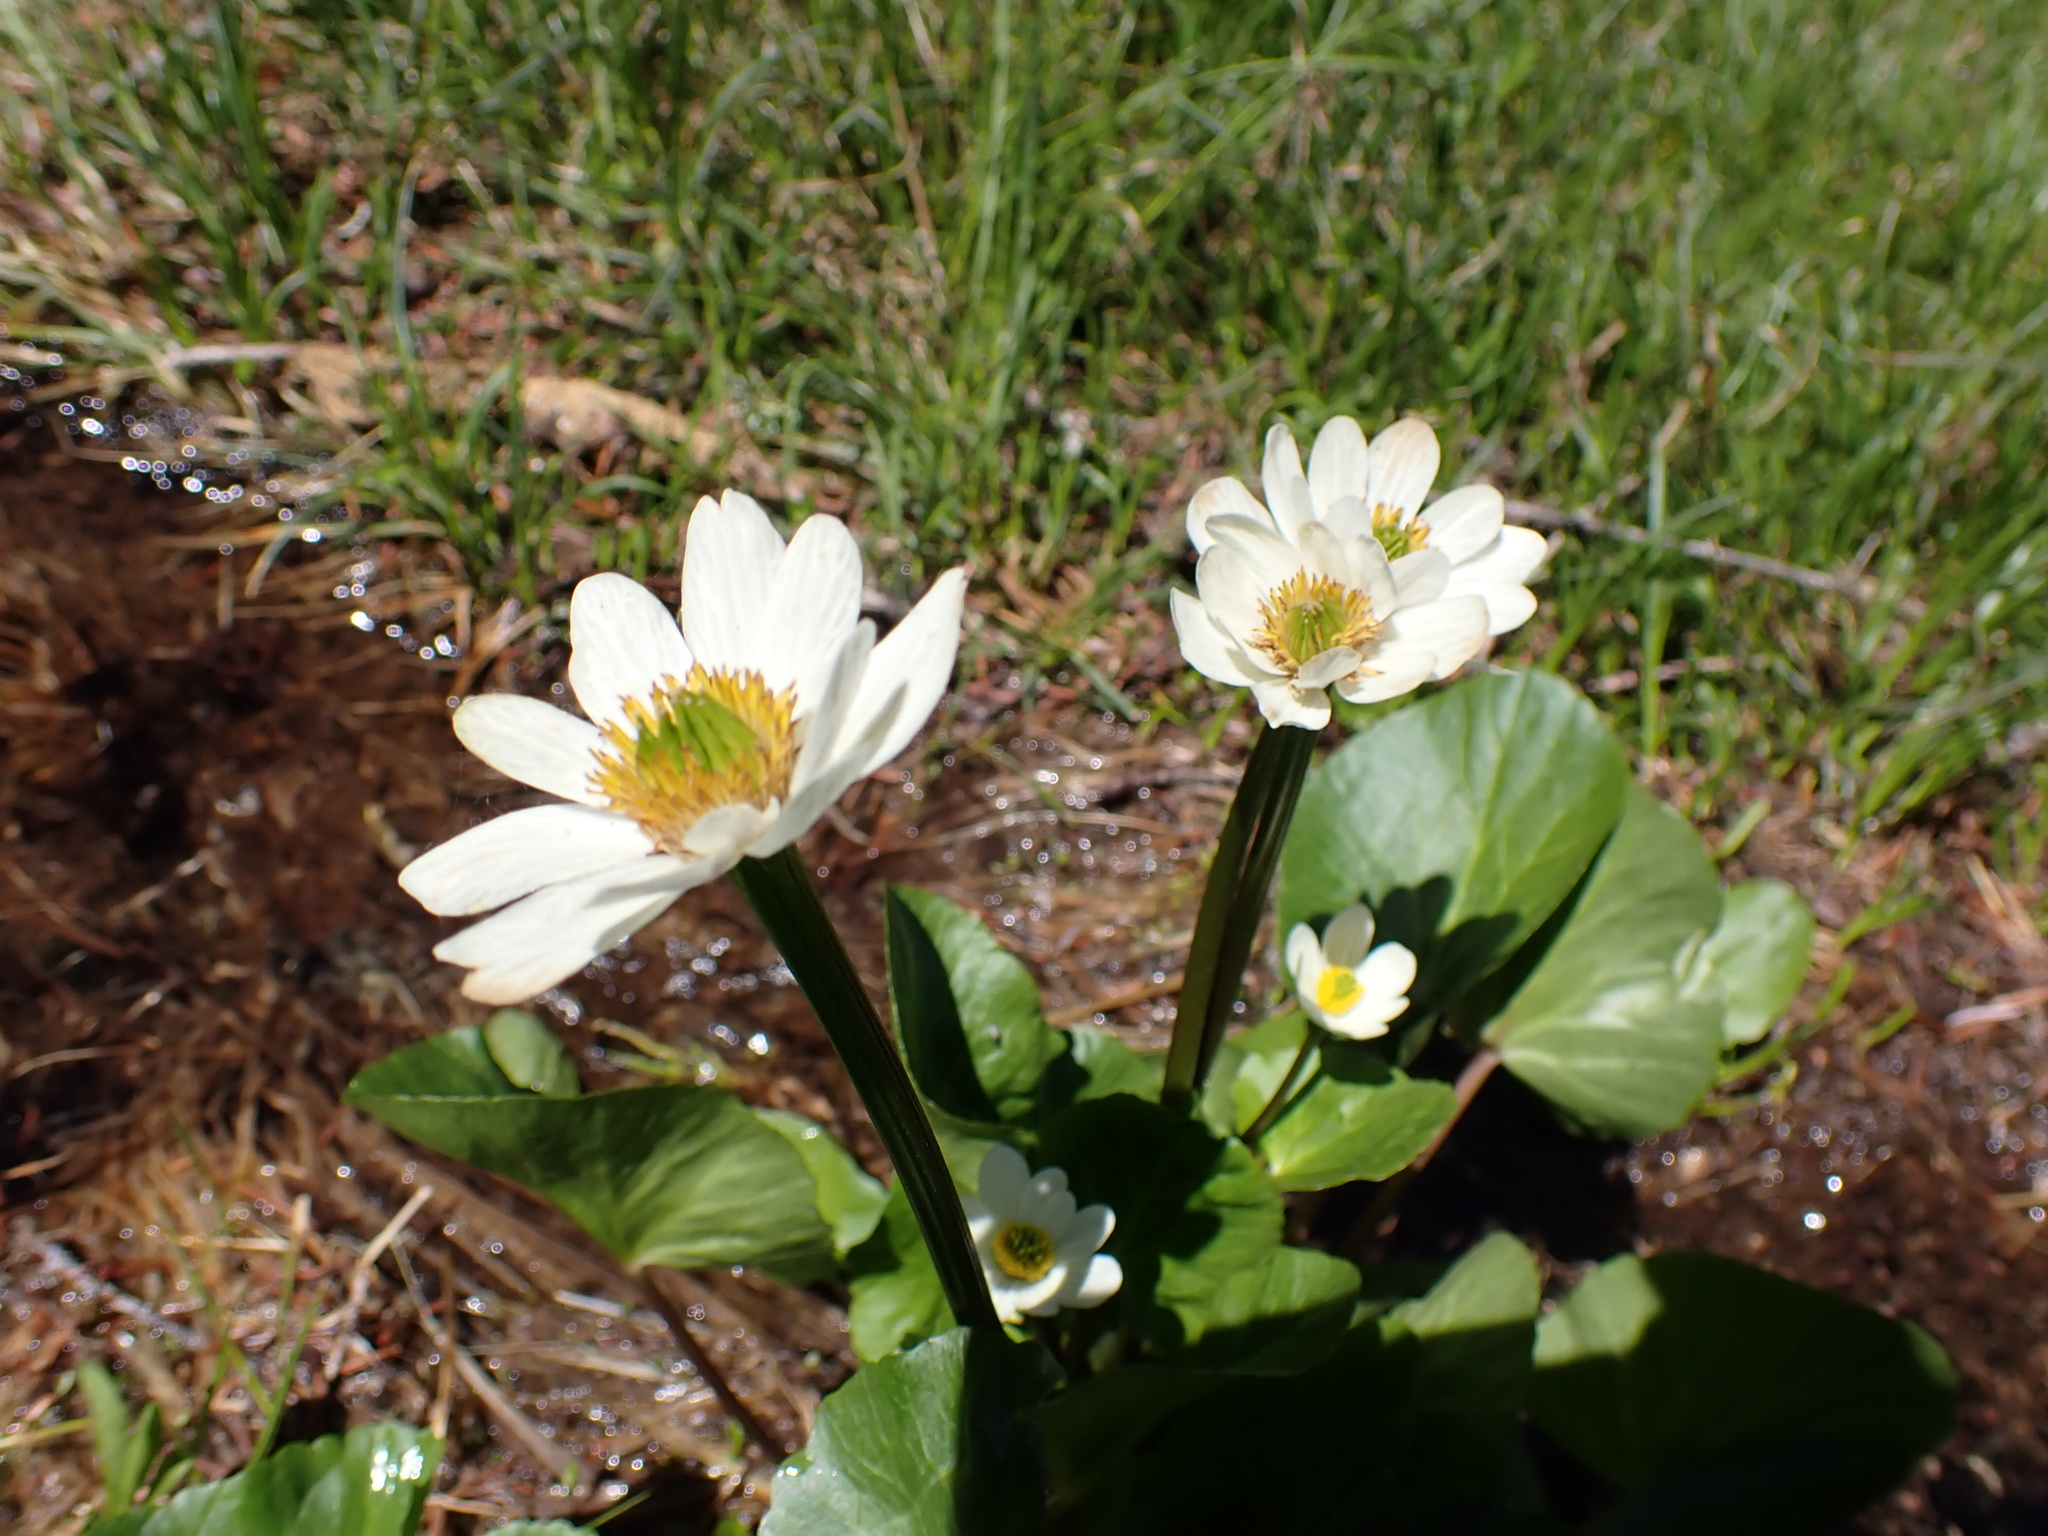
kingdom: Plantae
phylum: Tracheophyta
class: Magnoliopsida
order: Ranunculales
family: Ranunculaceae
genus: Caltha
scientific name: Caltha leptosepala
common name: Elkslip
